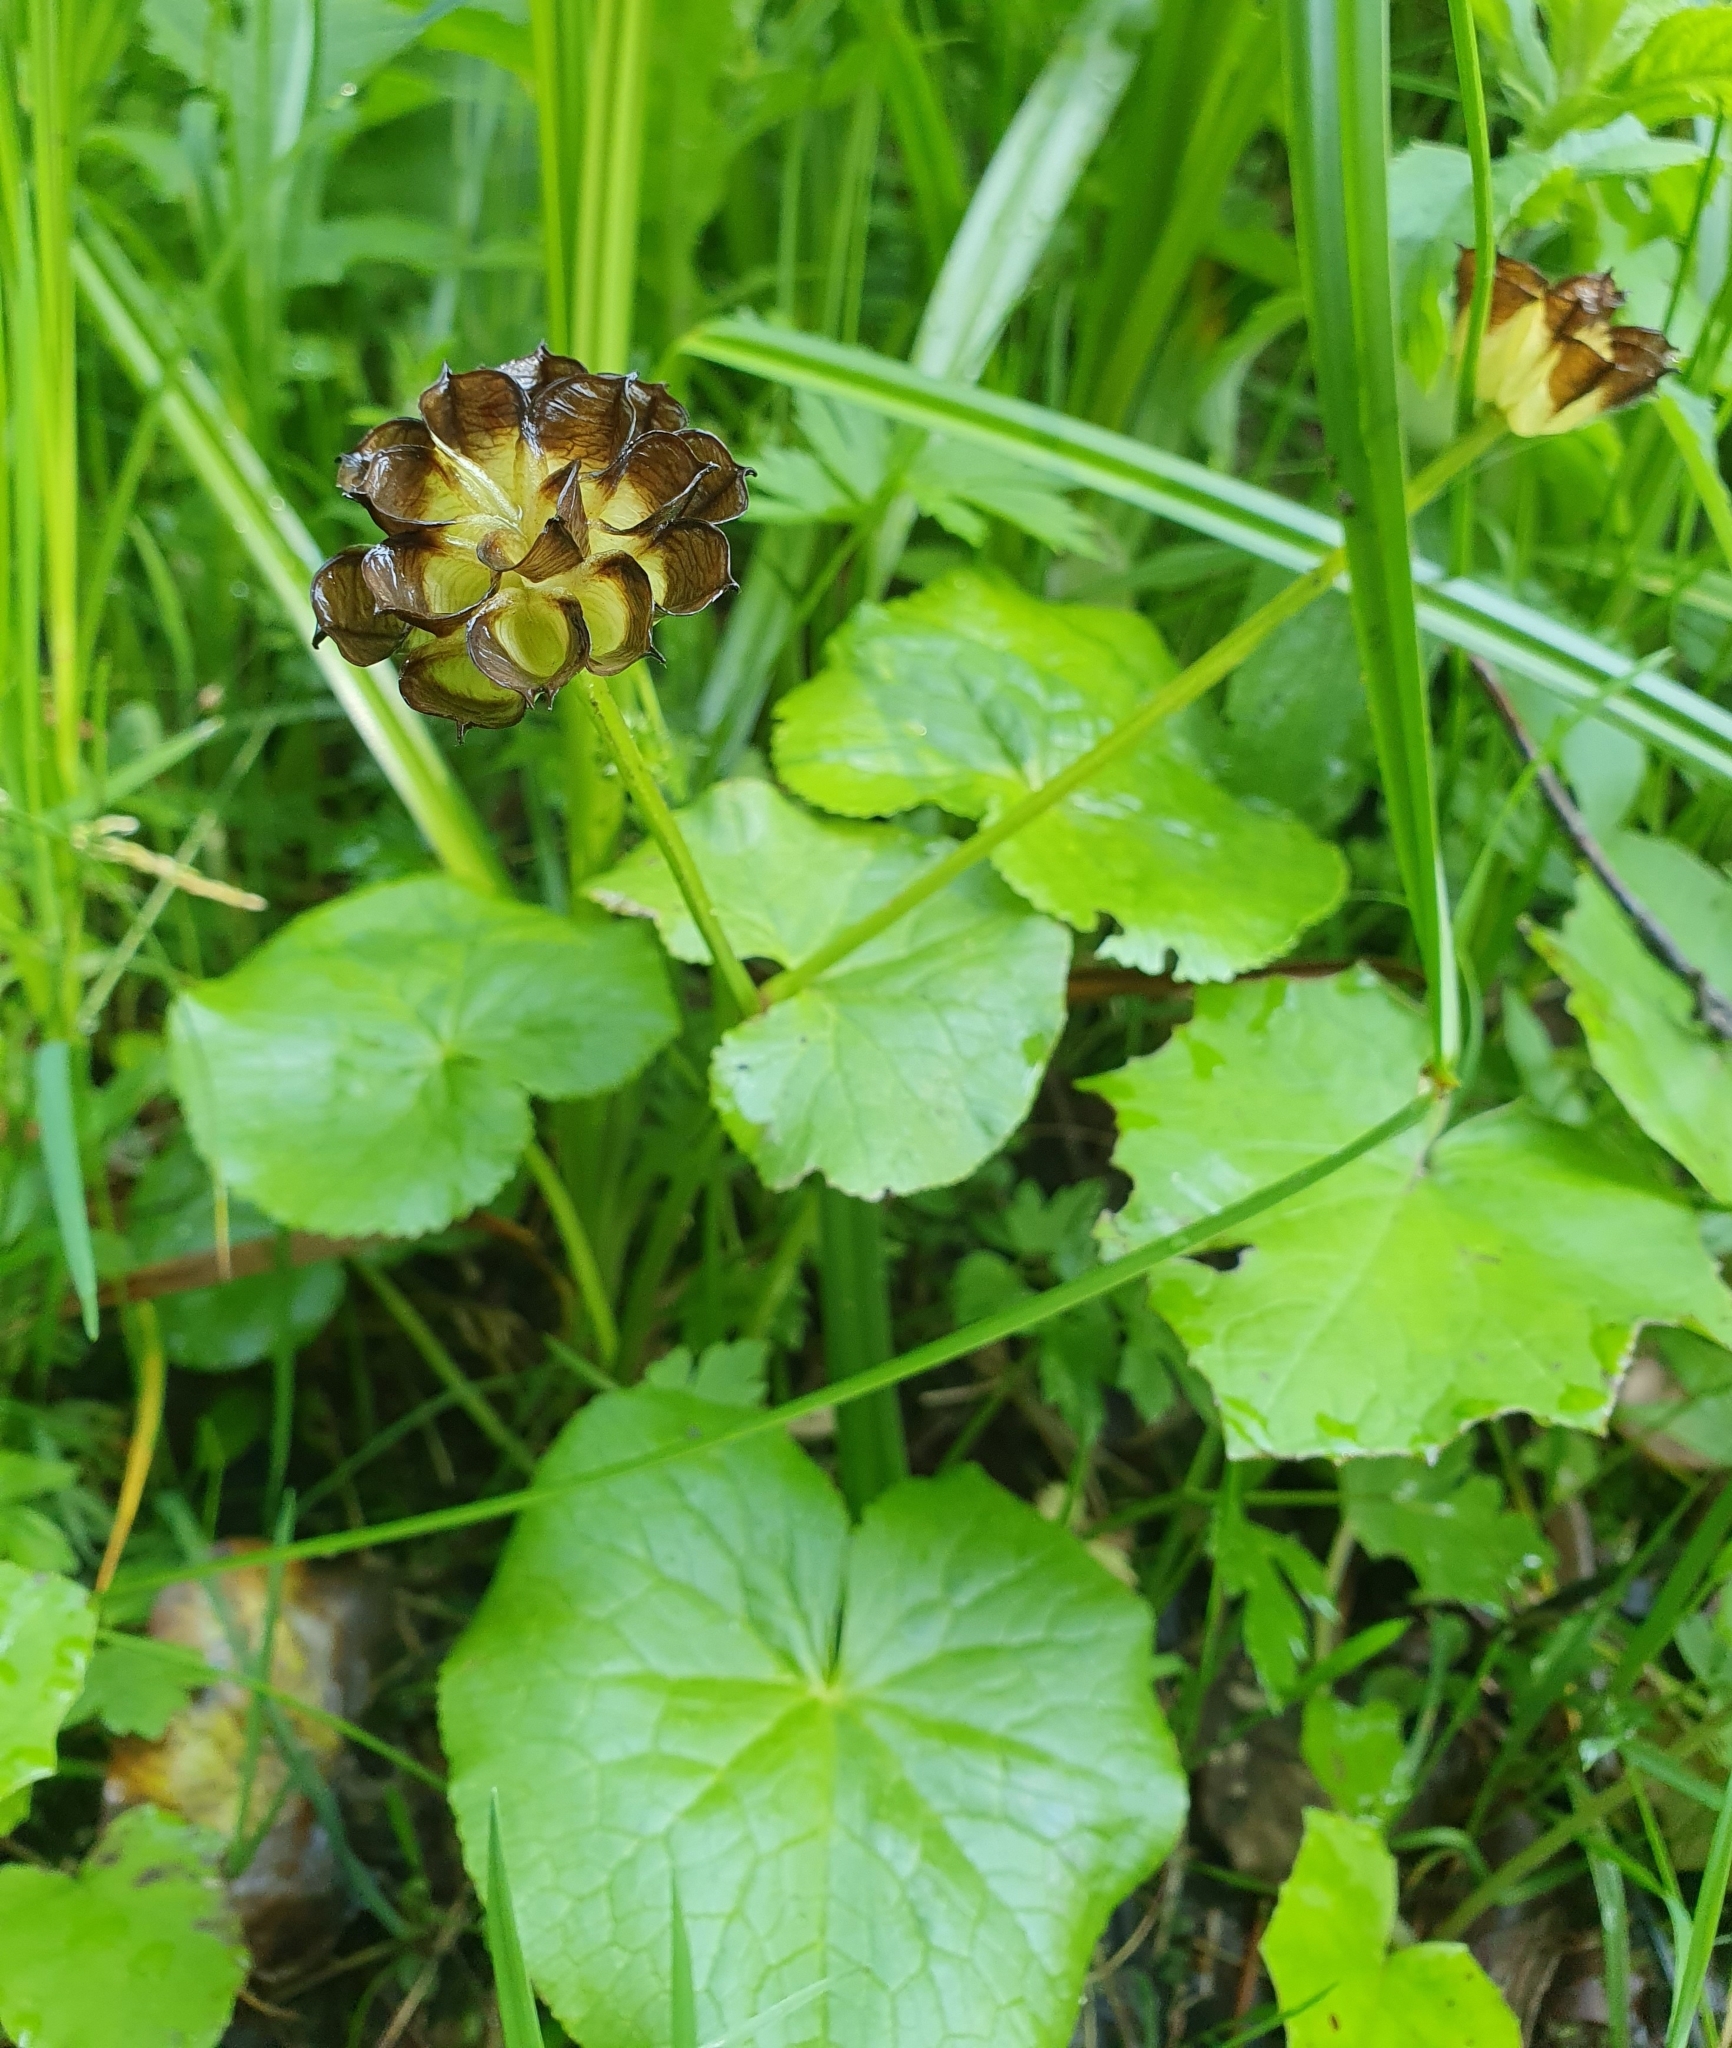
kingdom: Plantae
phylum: Tracheophyta
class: Magnoliopsida
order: Ranunculales
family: Ranunculaceae
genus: Caltha
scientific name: Caltha palustris
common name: Marsh marigold
